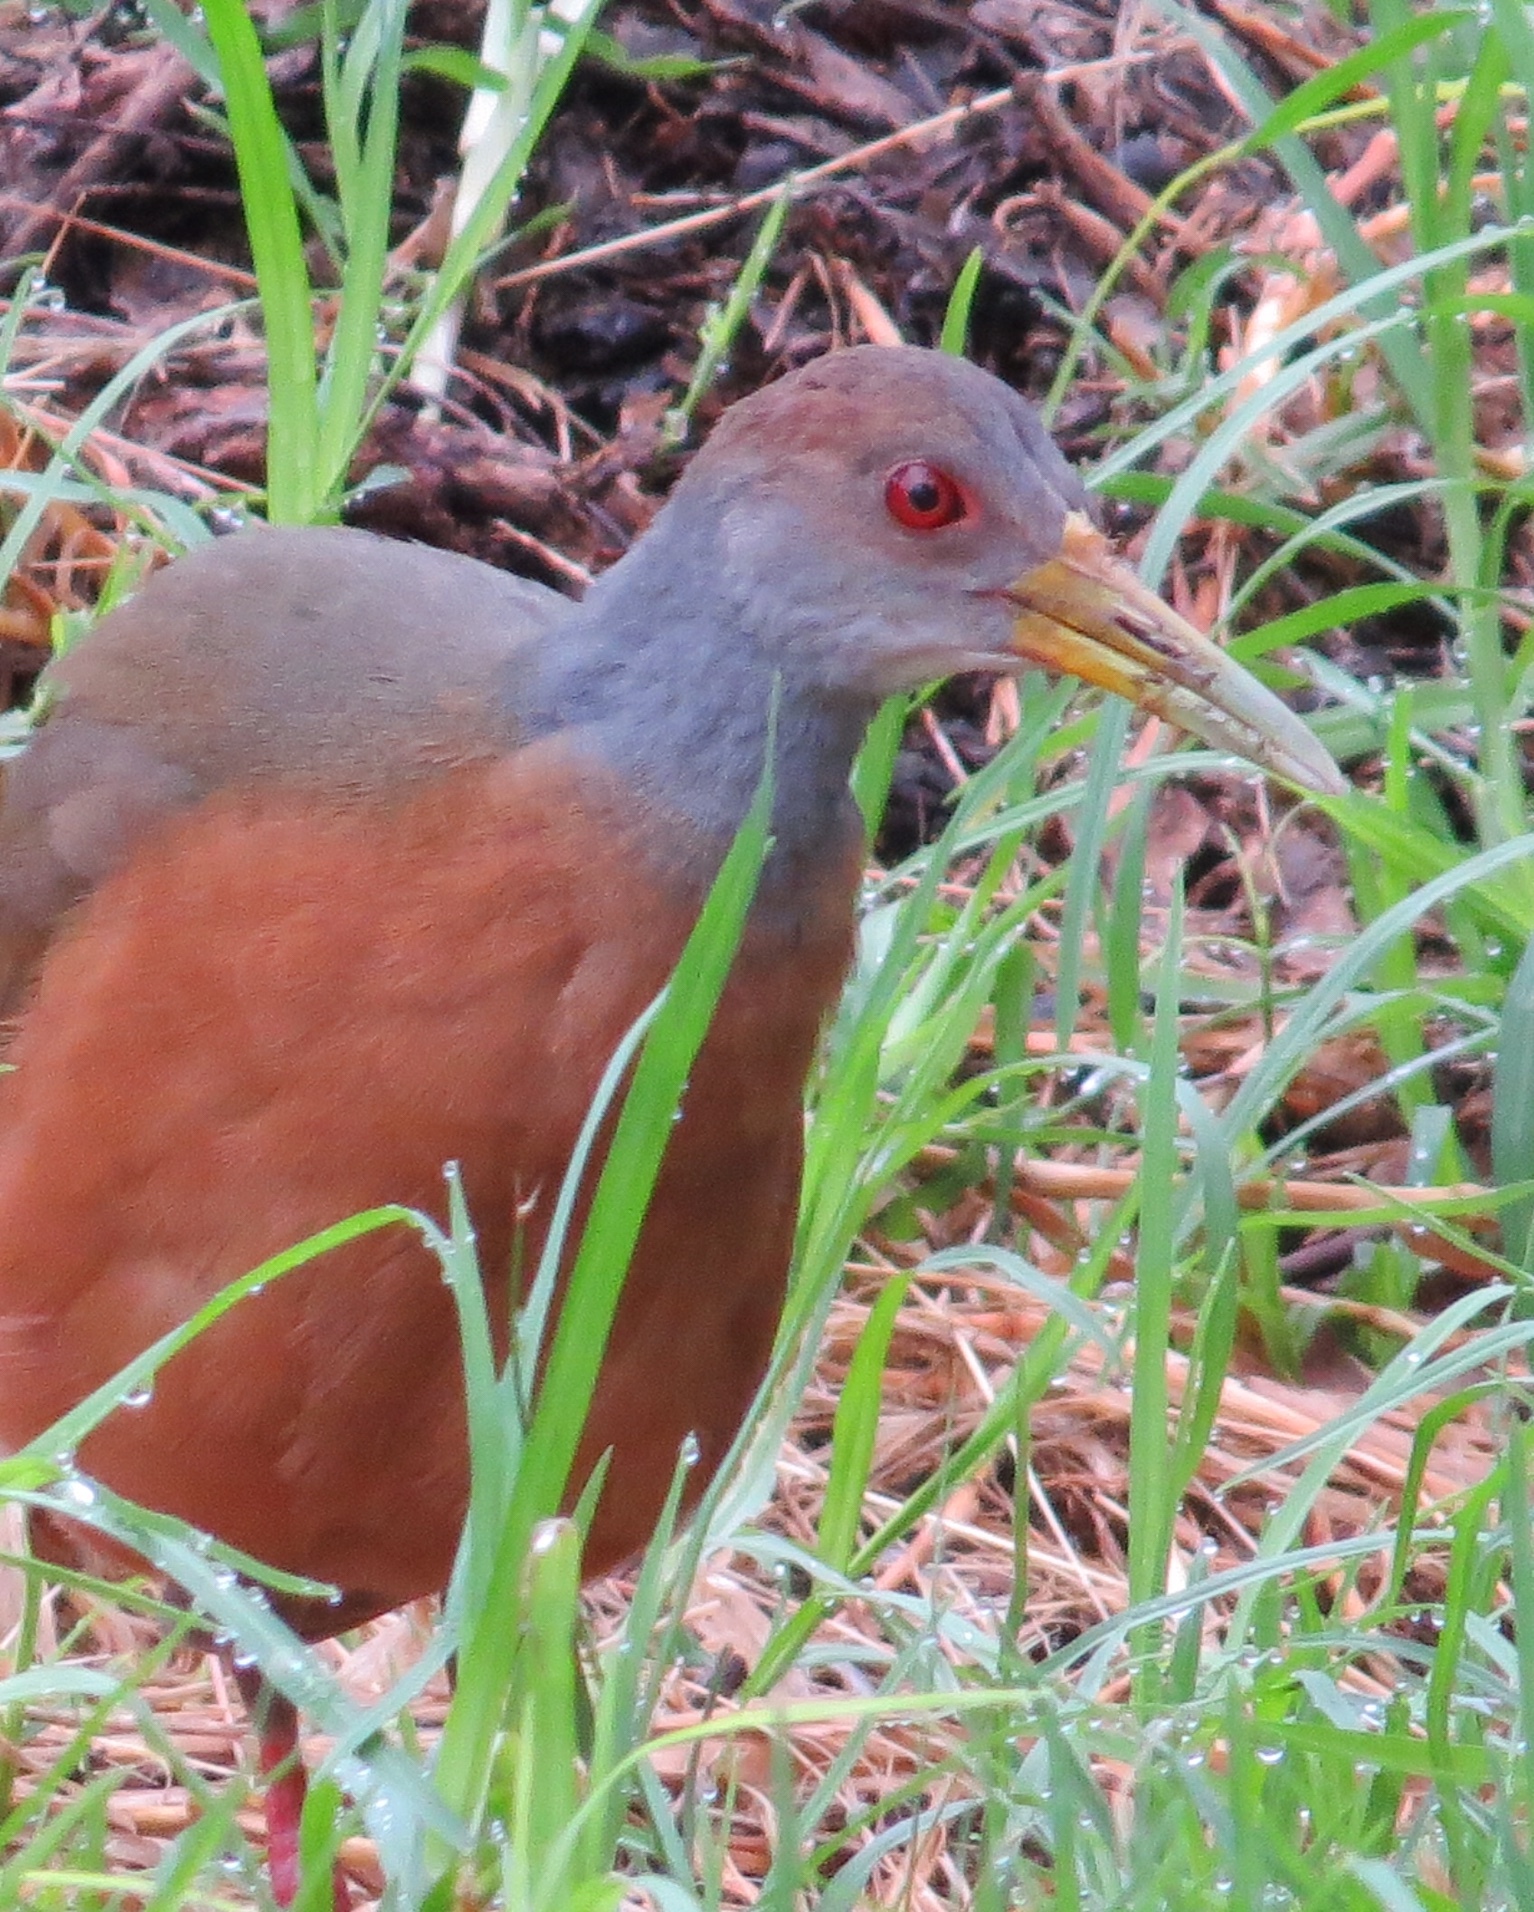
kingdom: Animalia
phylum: Chordata
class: Aves
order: Gruiformes
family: Rallidae
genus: Aramides
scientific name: Aramides cajanea
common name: Gray-necked wood-rail
